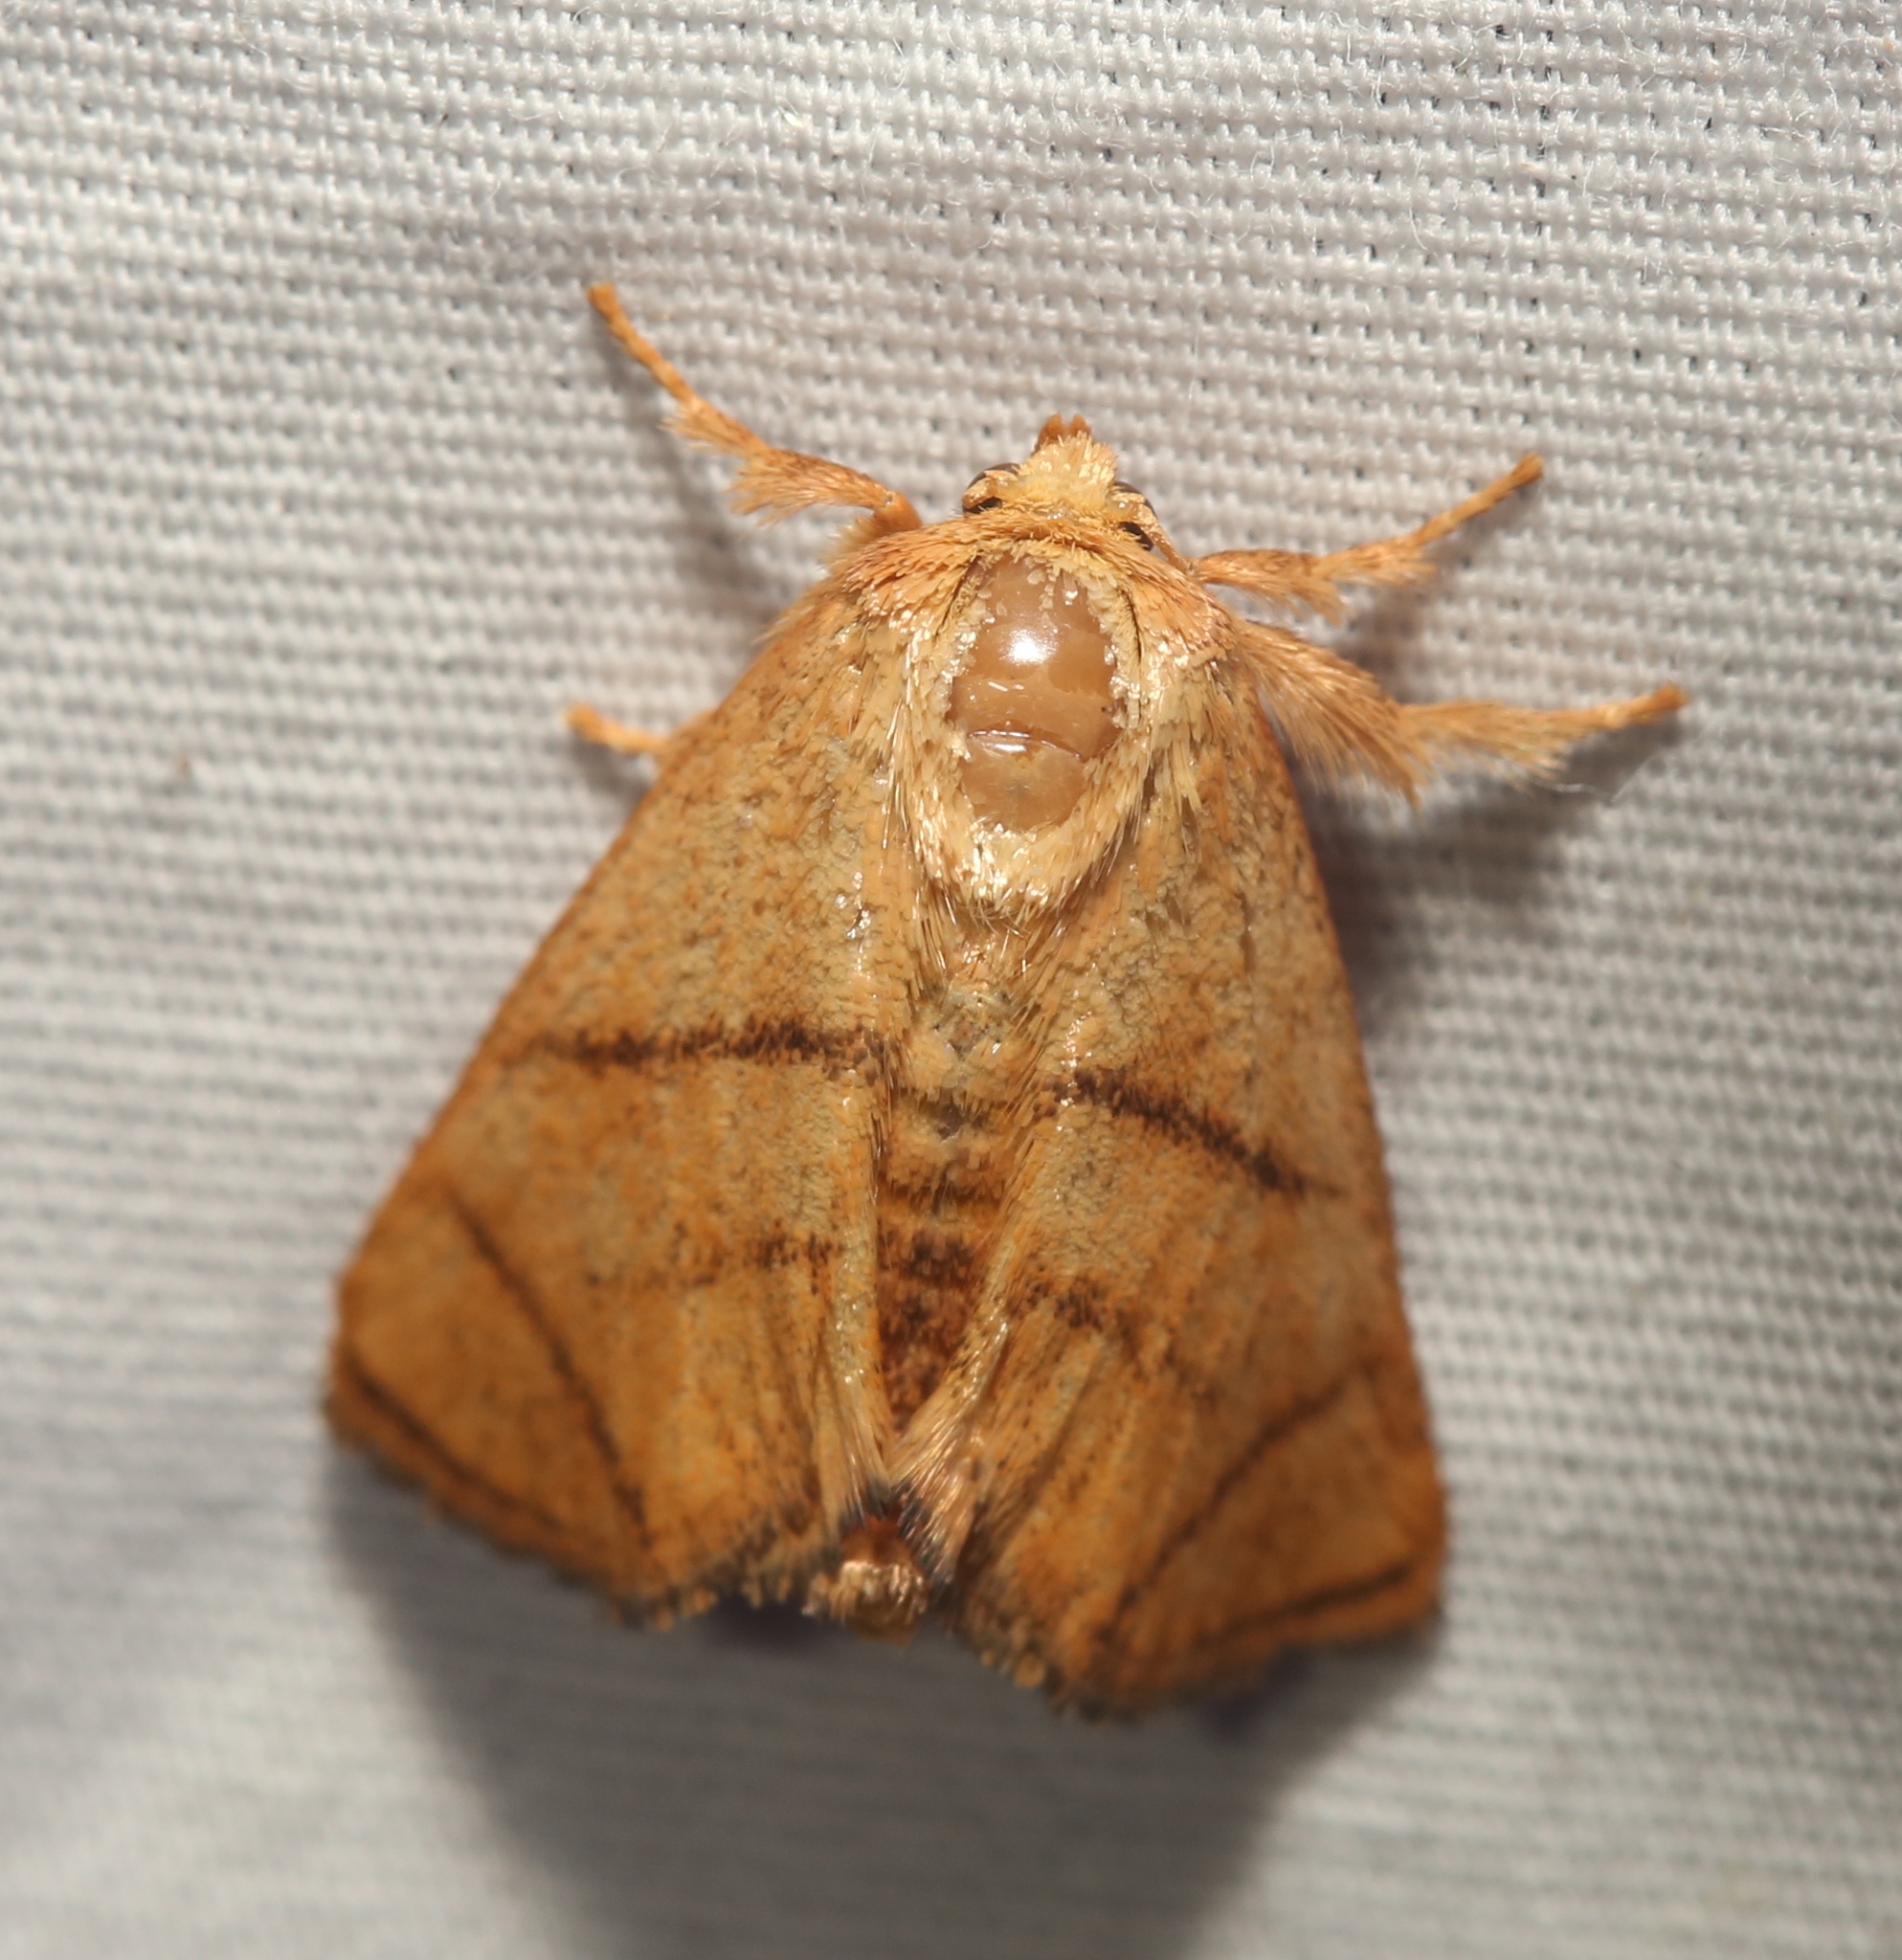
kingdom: Animalia
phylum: Arthropoda
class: Insecta
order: Lepidoptera
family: Limacodidae
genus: Apoda
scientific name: Apoda y-inversa
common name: Yellow-collared slug moth
